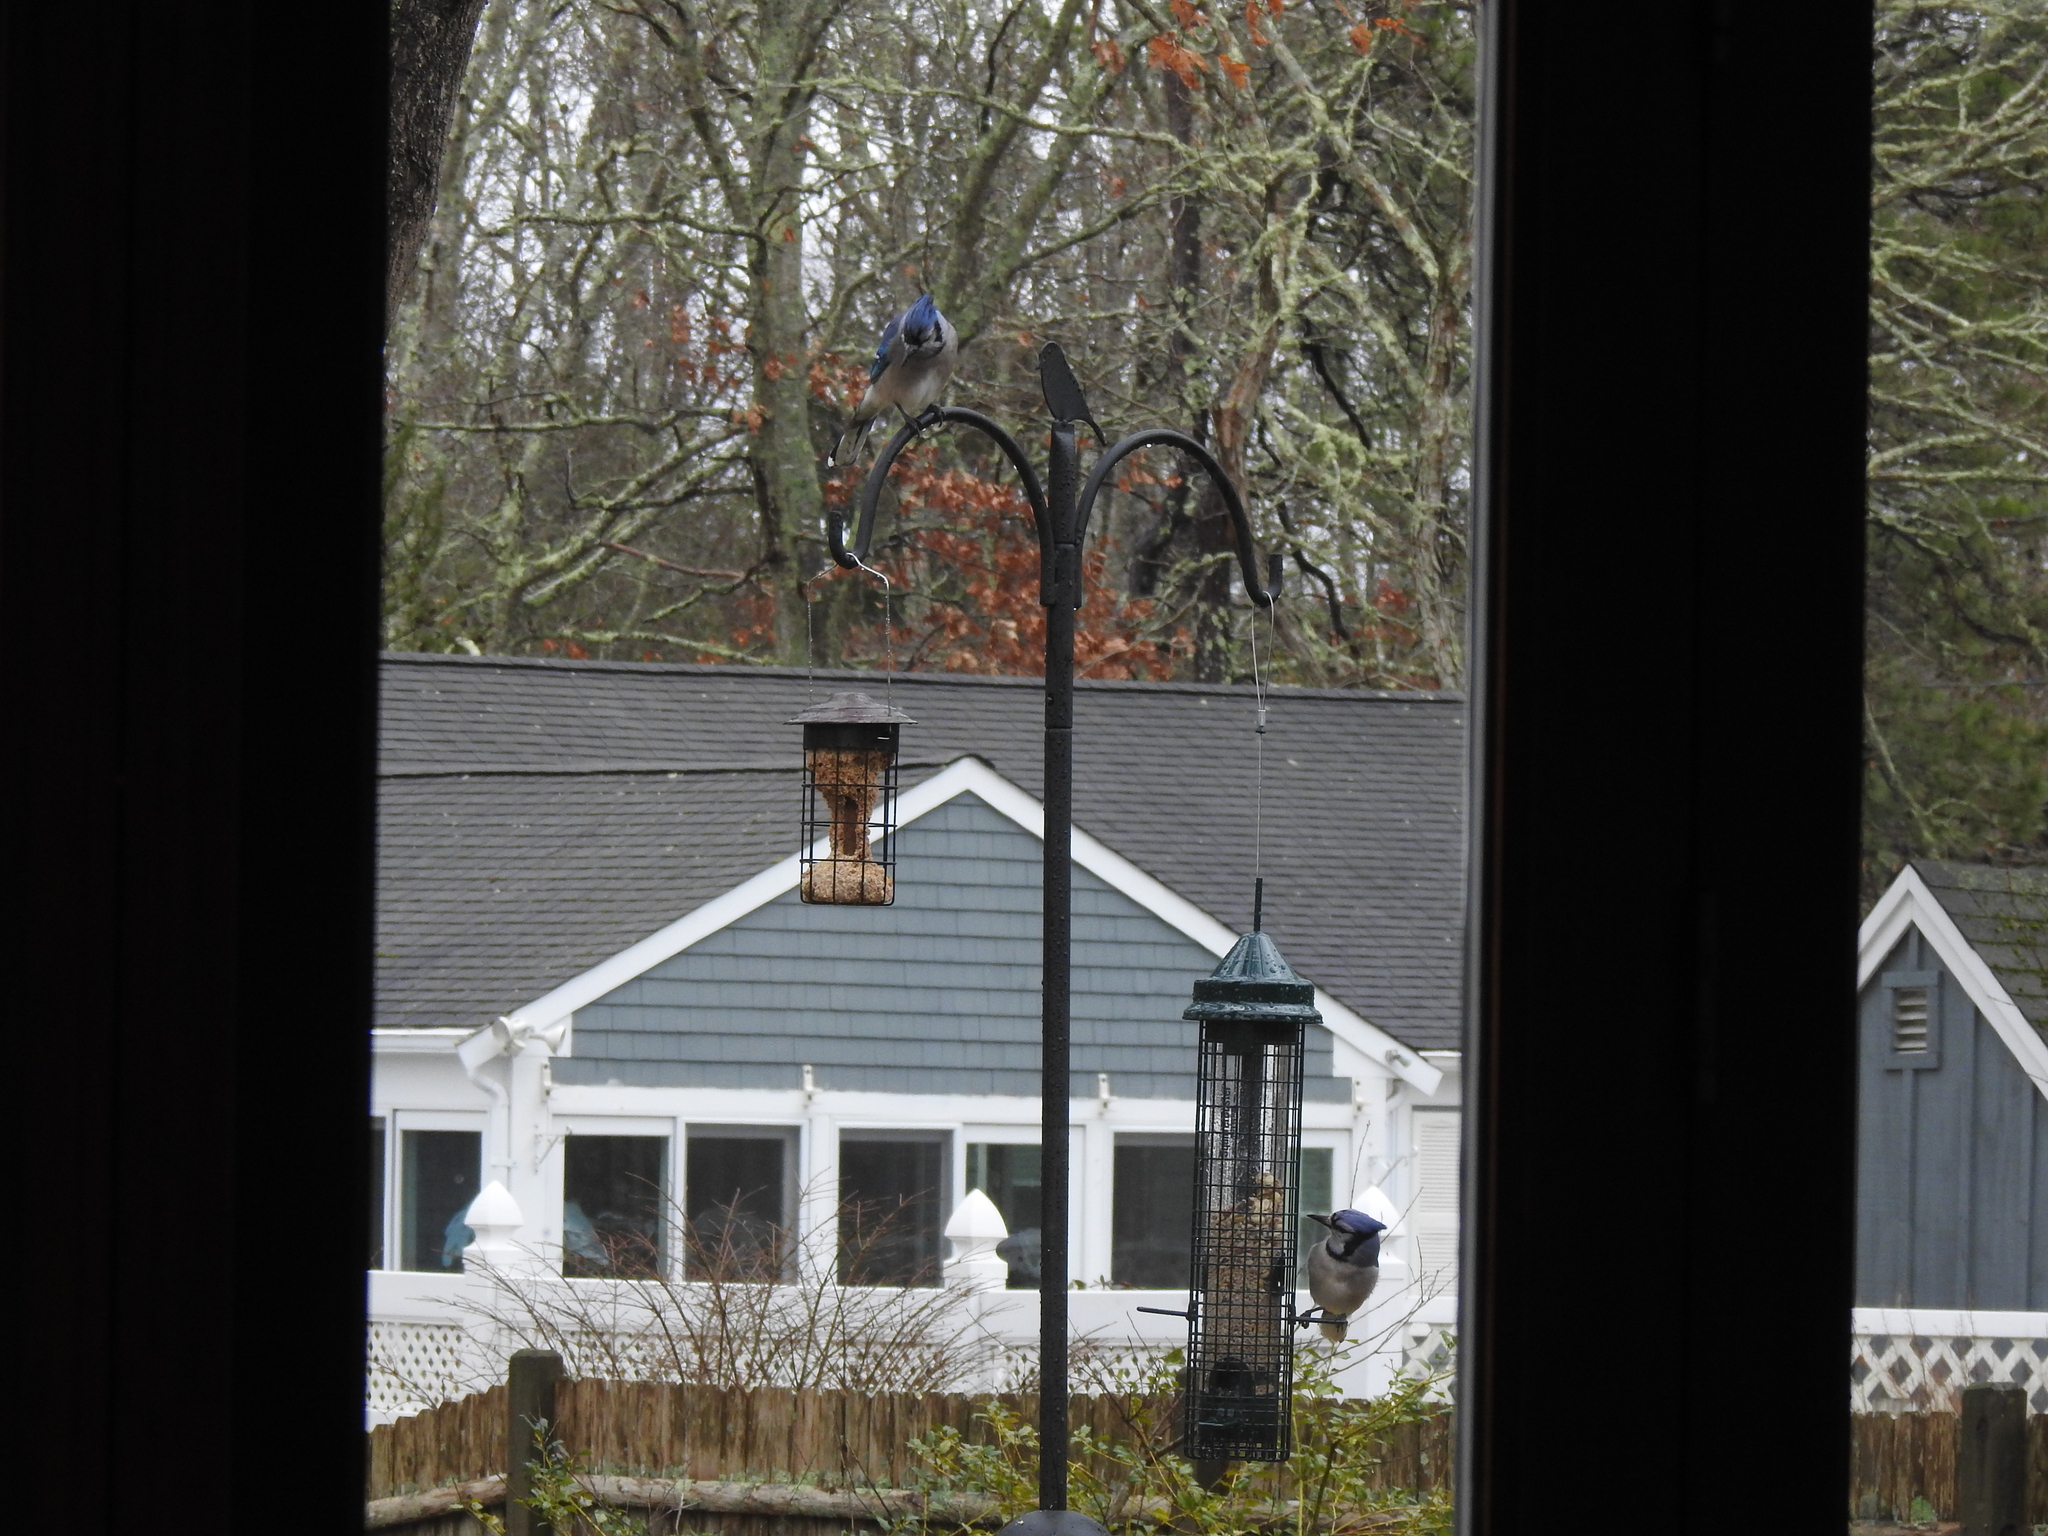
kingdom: Animalia
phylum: Chordata
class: Aves
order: Passeriformes
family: Corvidae
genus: Cyanocitta
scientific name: Cyanocitta cristata
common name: Blue jay
